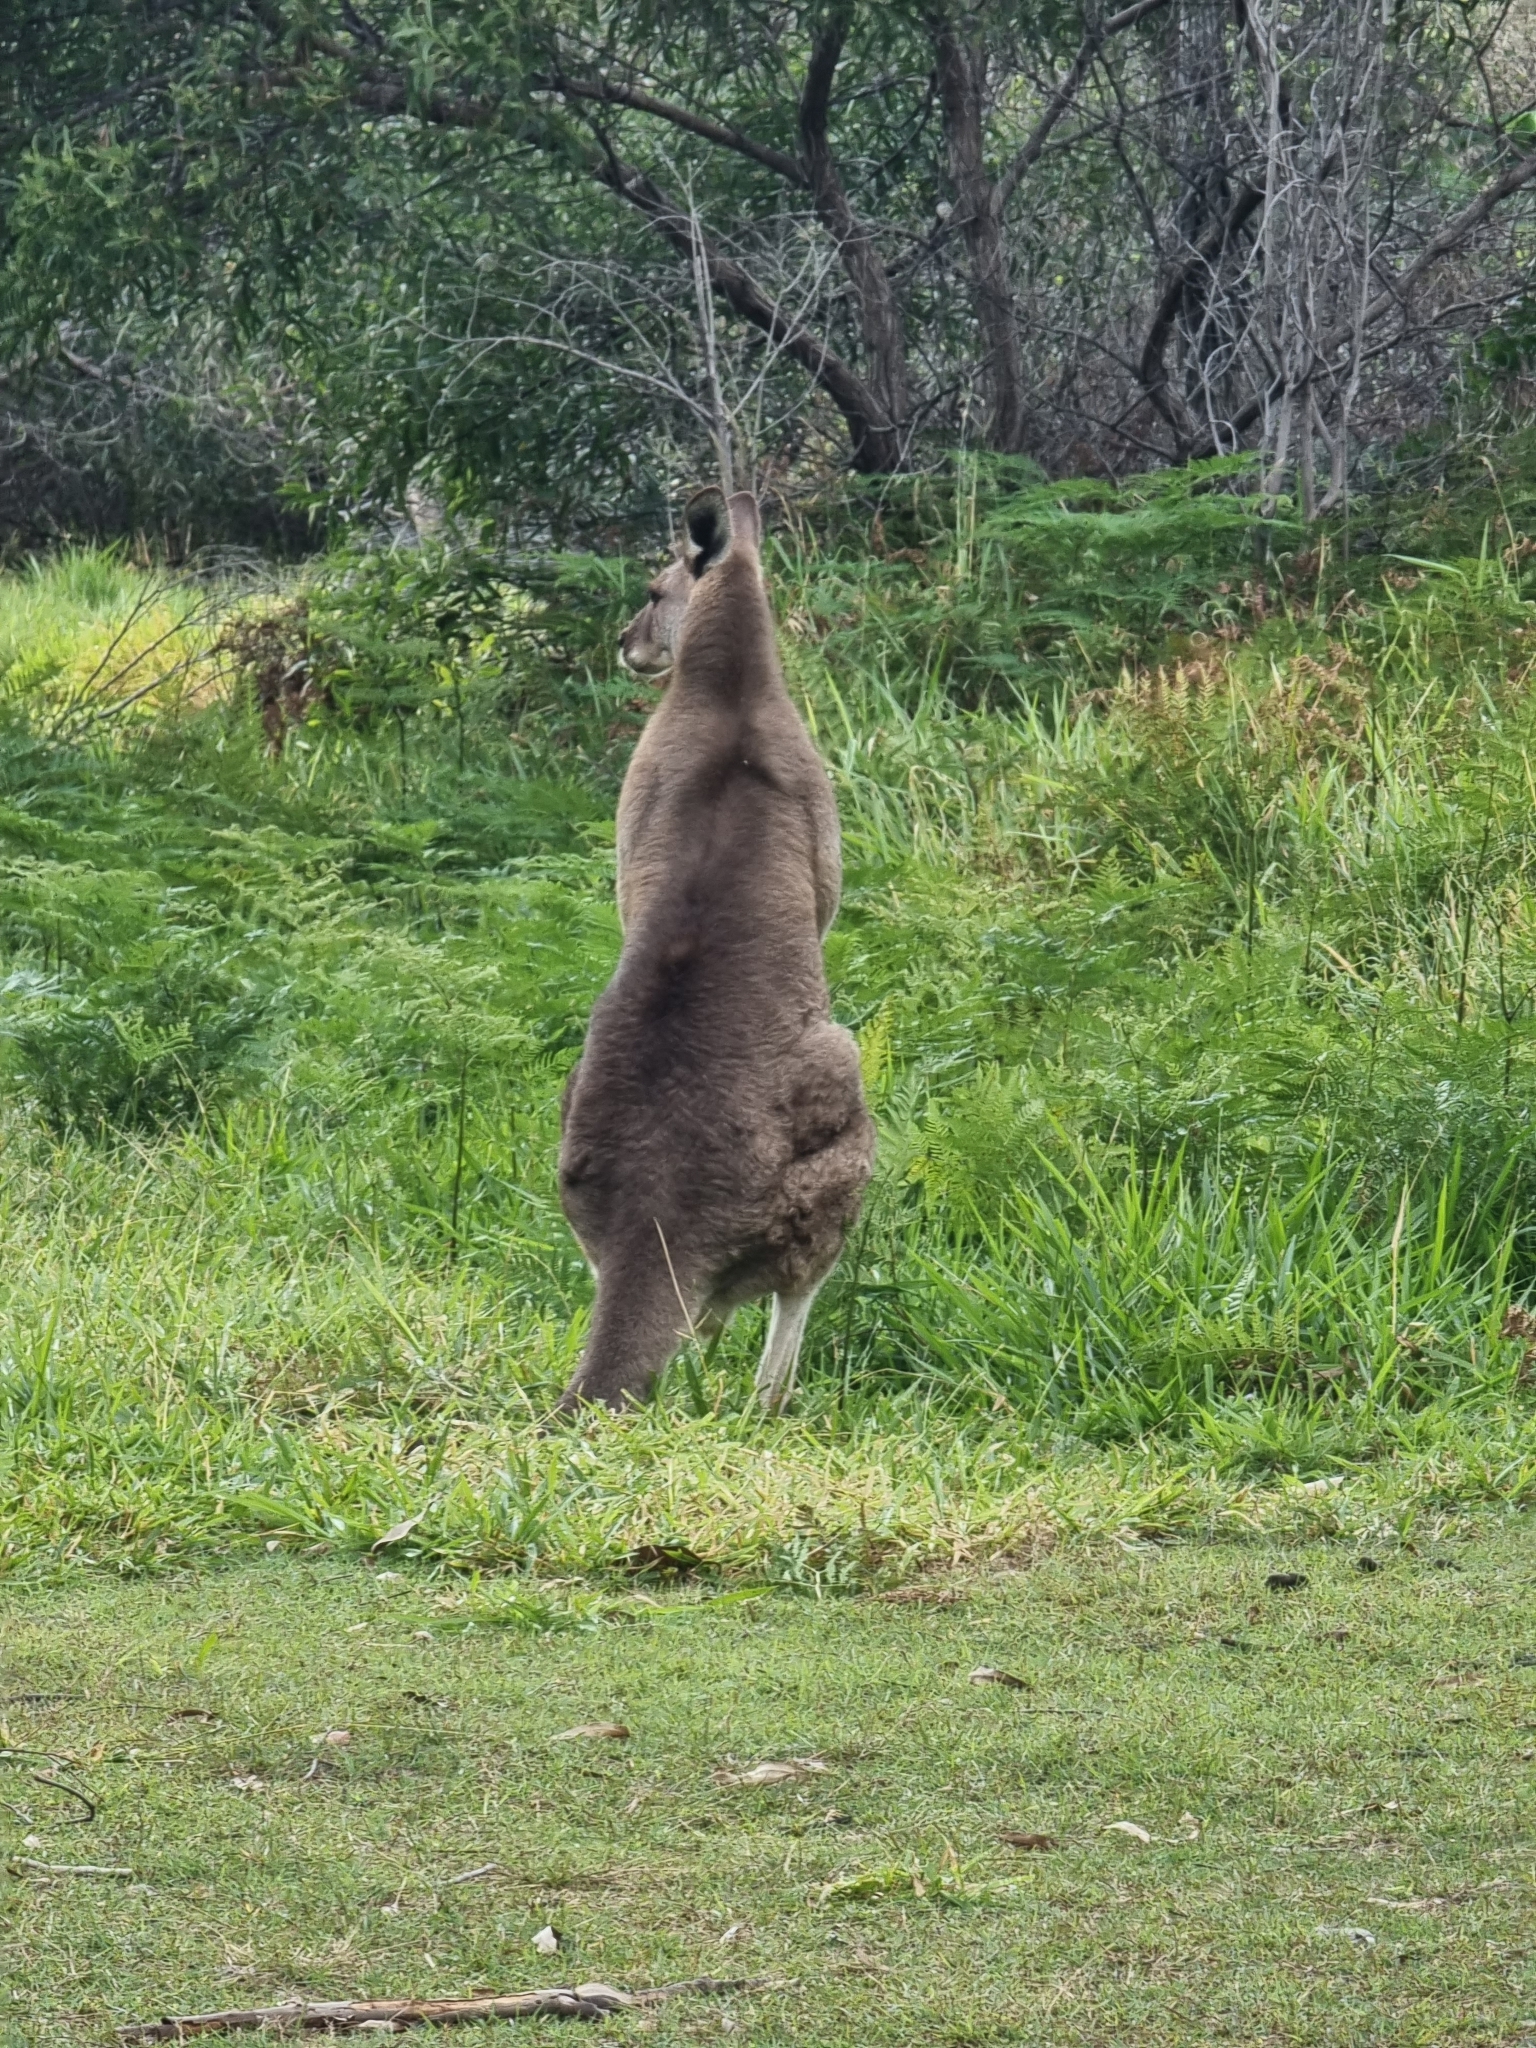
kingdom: Animalia
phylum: Chordata
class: Mammalia
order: Diprotodontia
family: Macropodidae
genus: Macropus
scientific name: Macropus giganteus
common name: Eastern grey kangaroo
